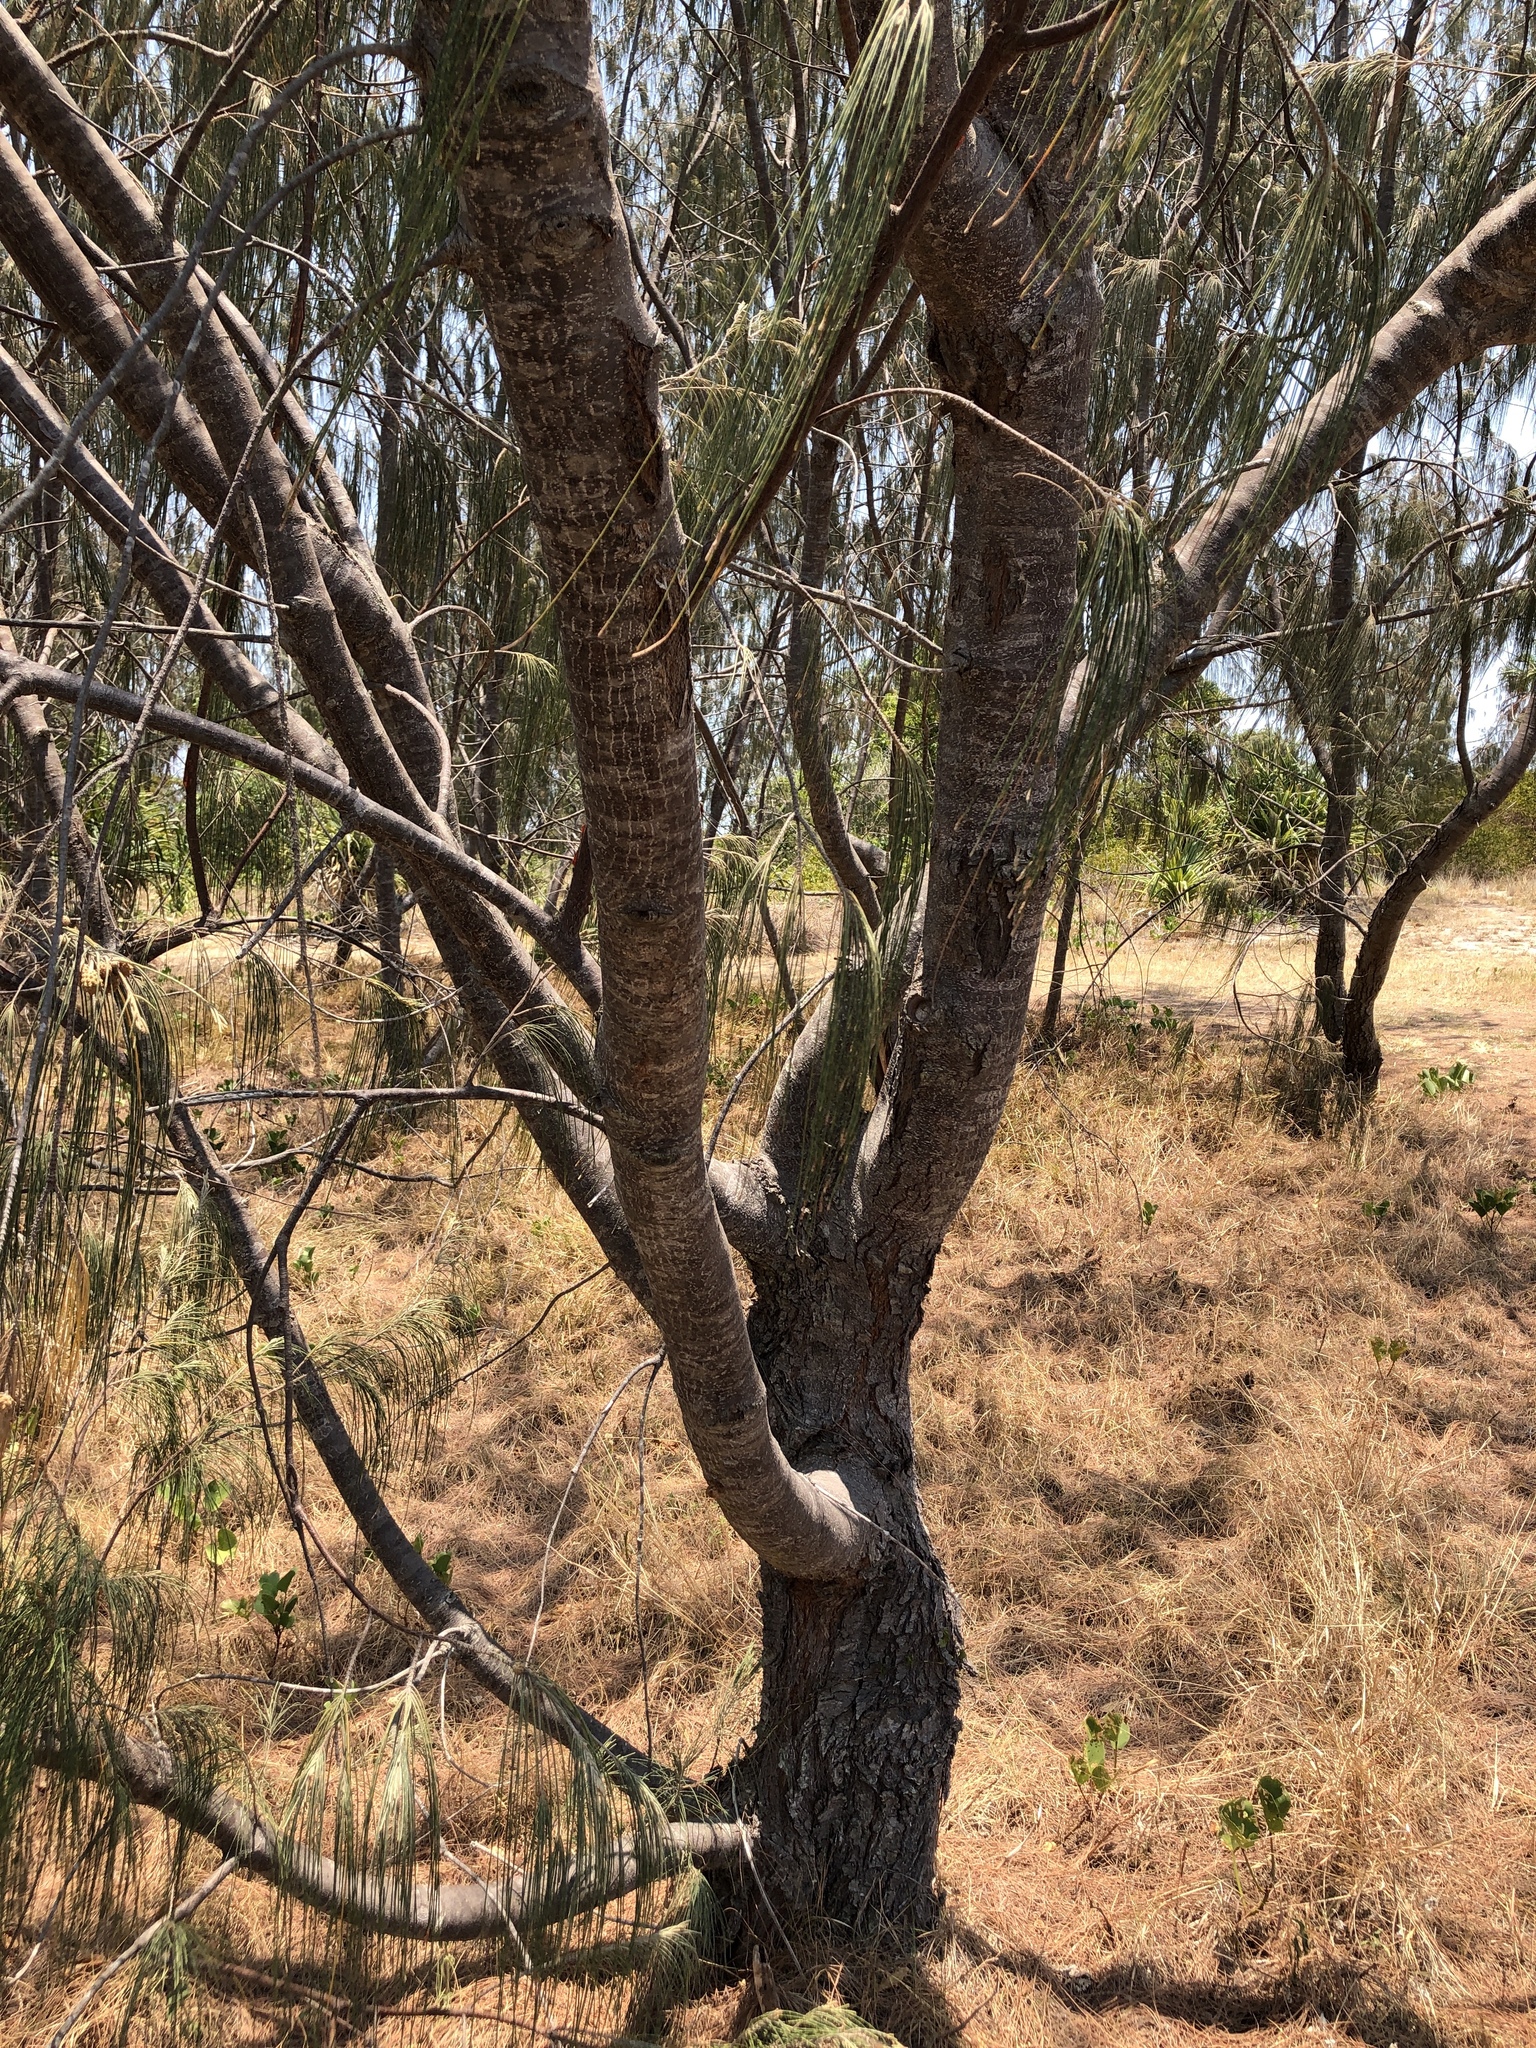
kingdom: Plantae
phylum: Tracheophyta
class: Magnoliopsida
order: Fagales
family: Casuarinaceae
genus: Casuarina
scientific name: Casuarina equisetifolia
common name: Beach sheoak
